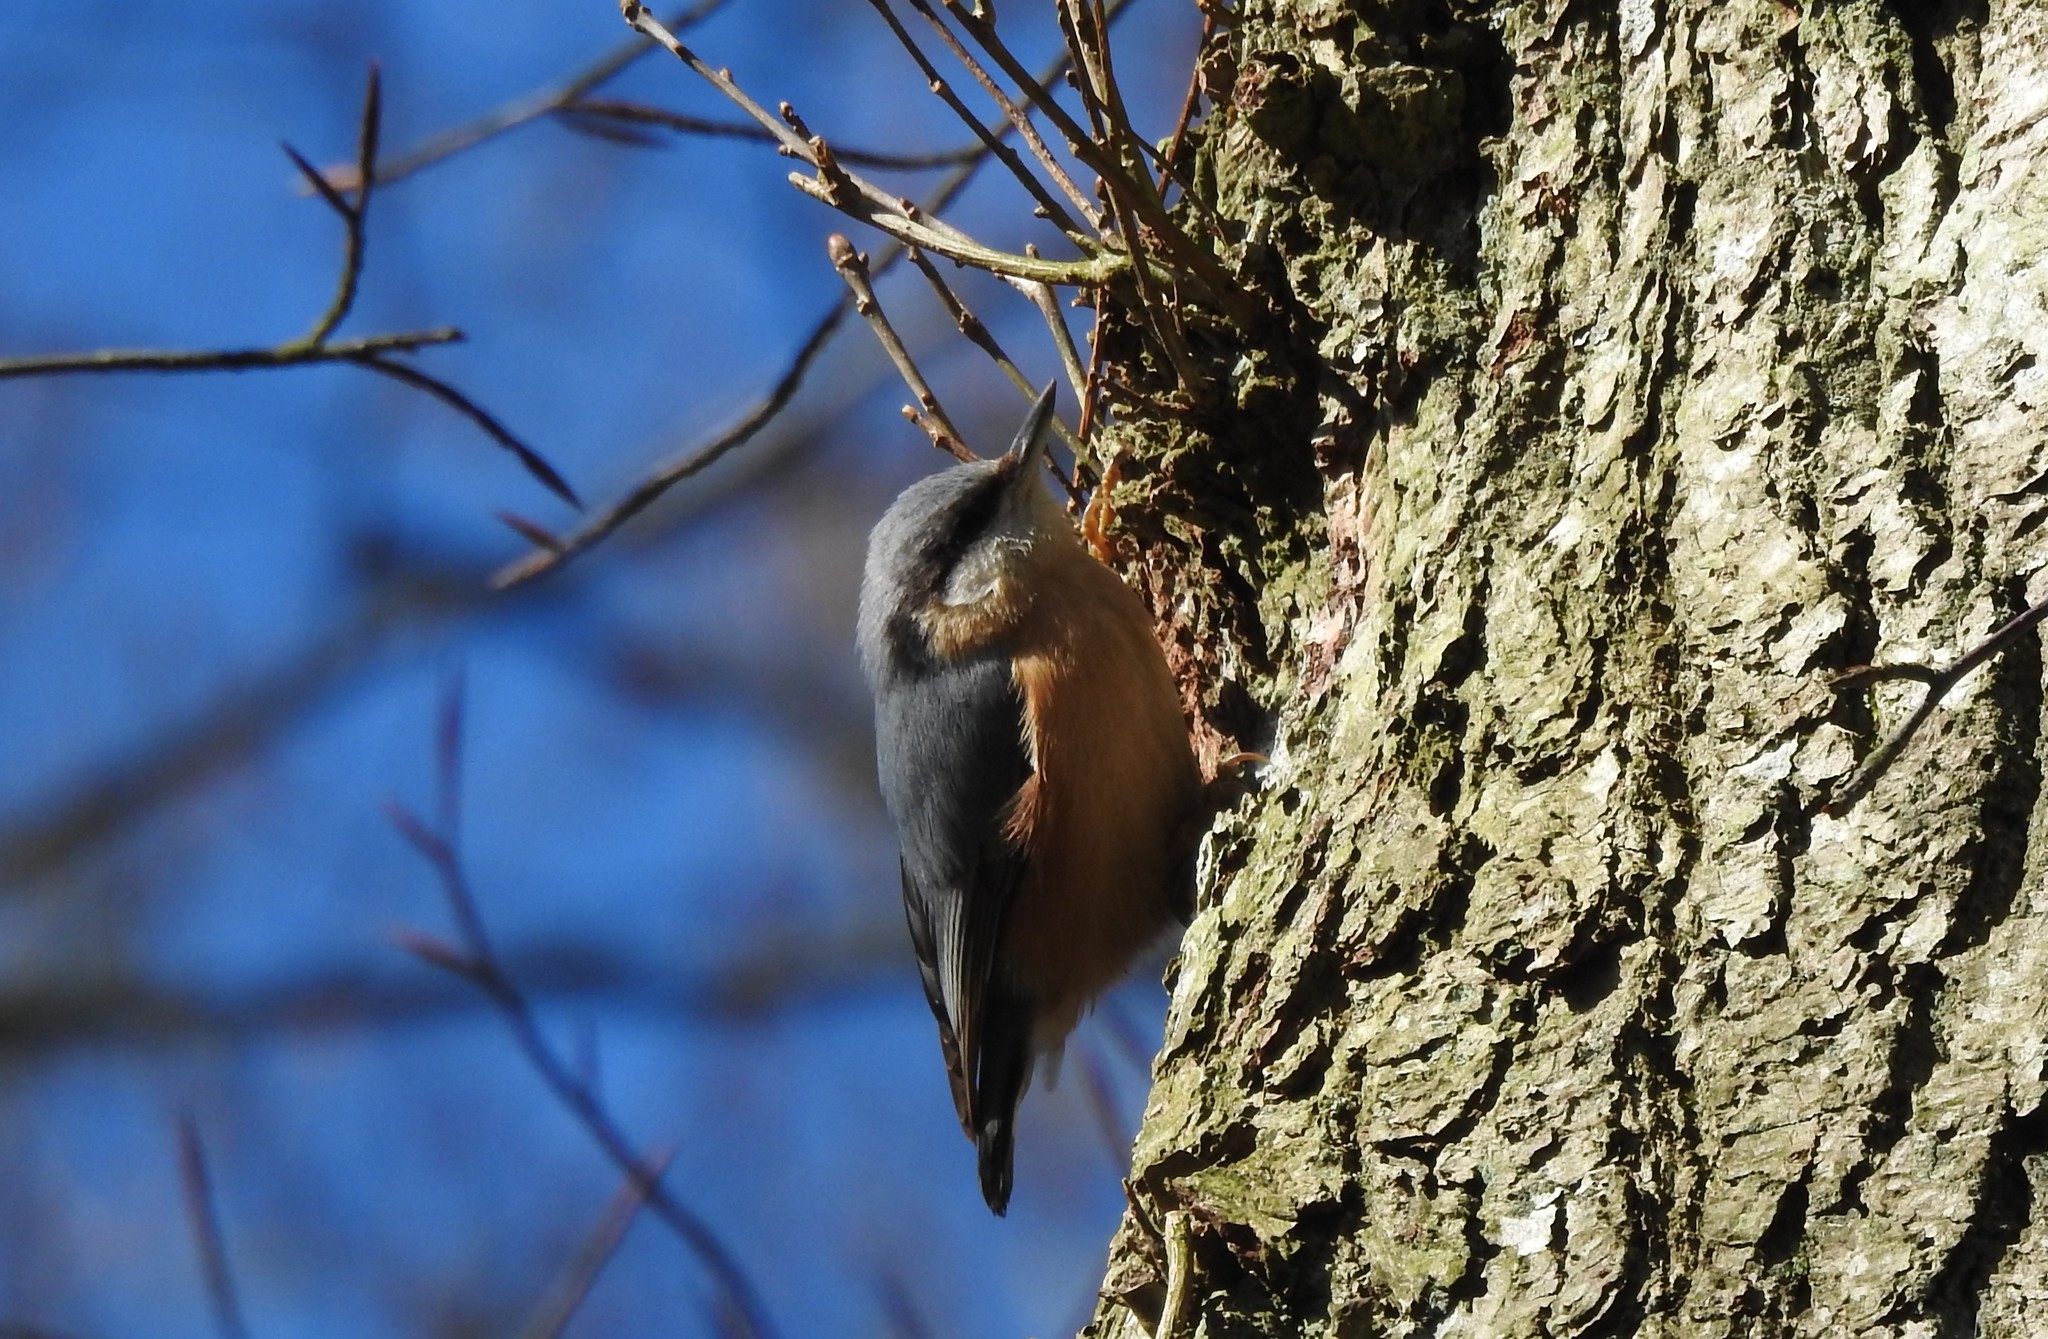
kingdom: Animalia
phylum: Chordata
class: Aves
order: Passeriformes
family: Sittidae
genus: Sitta
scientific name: Sitta europaea
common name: Eurasian nuthatch
